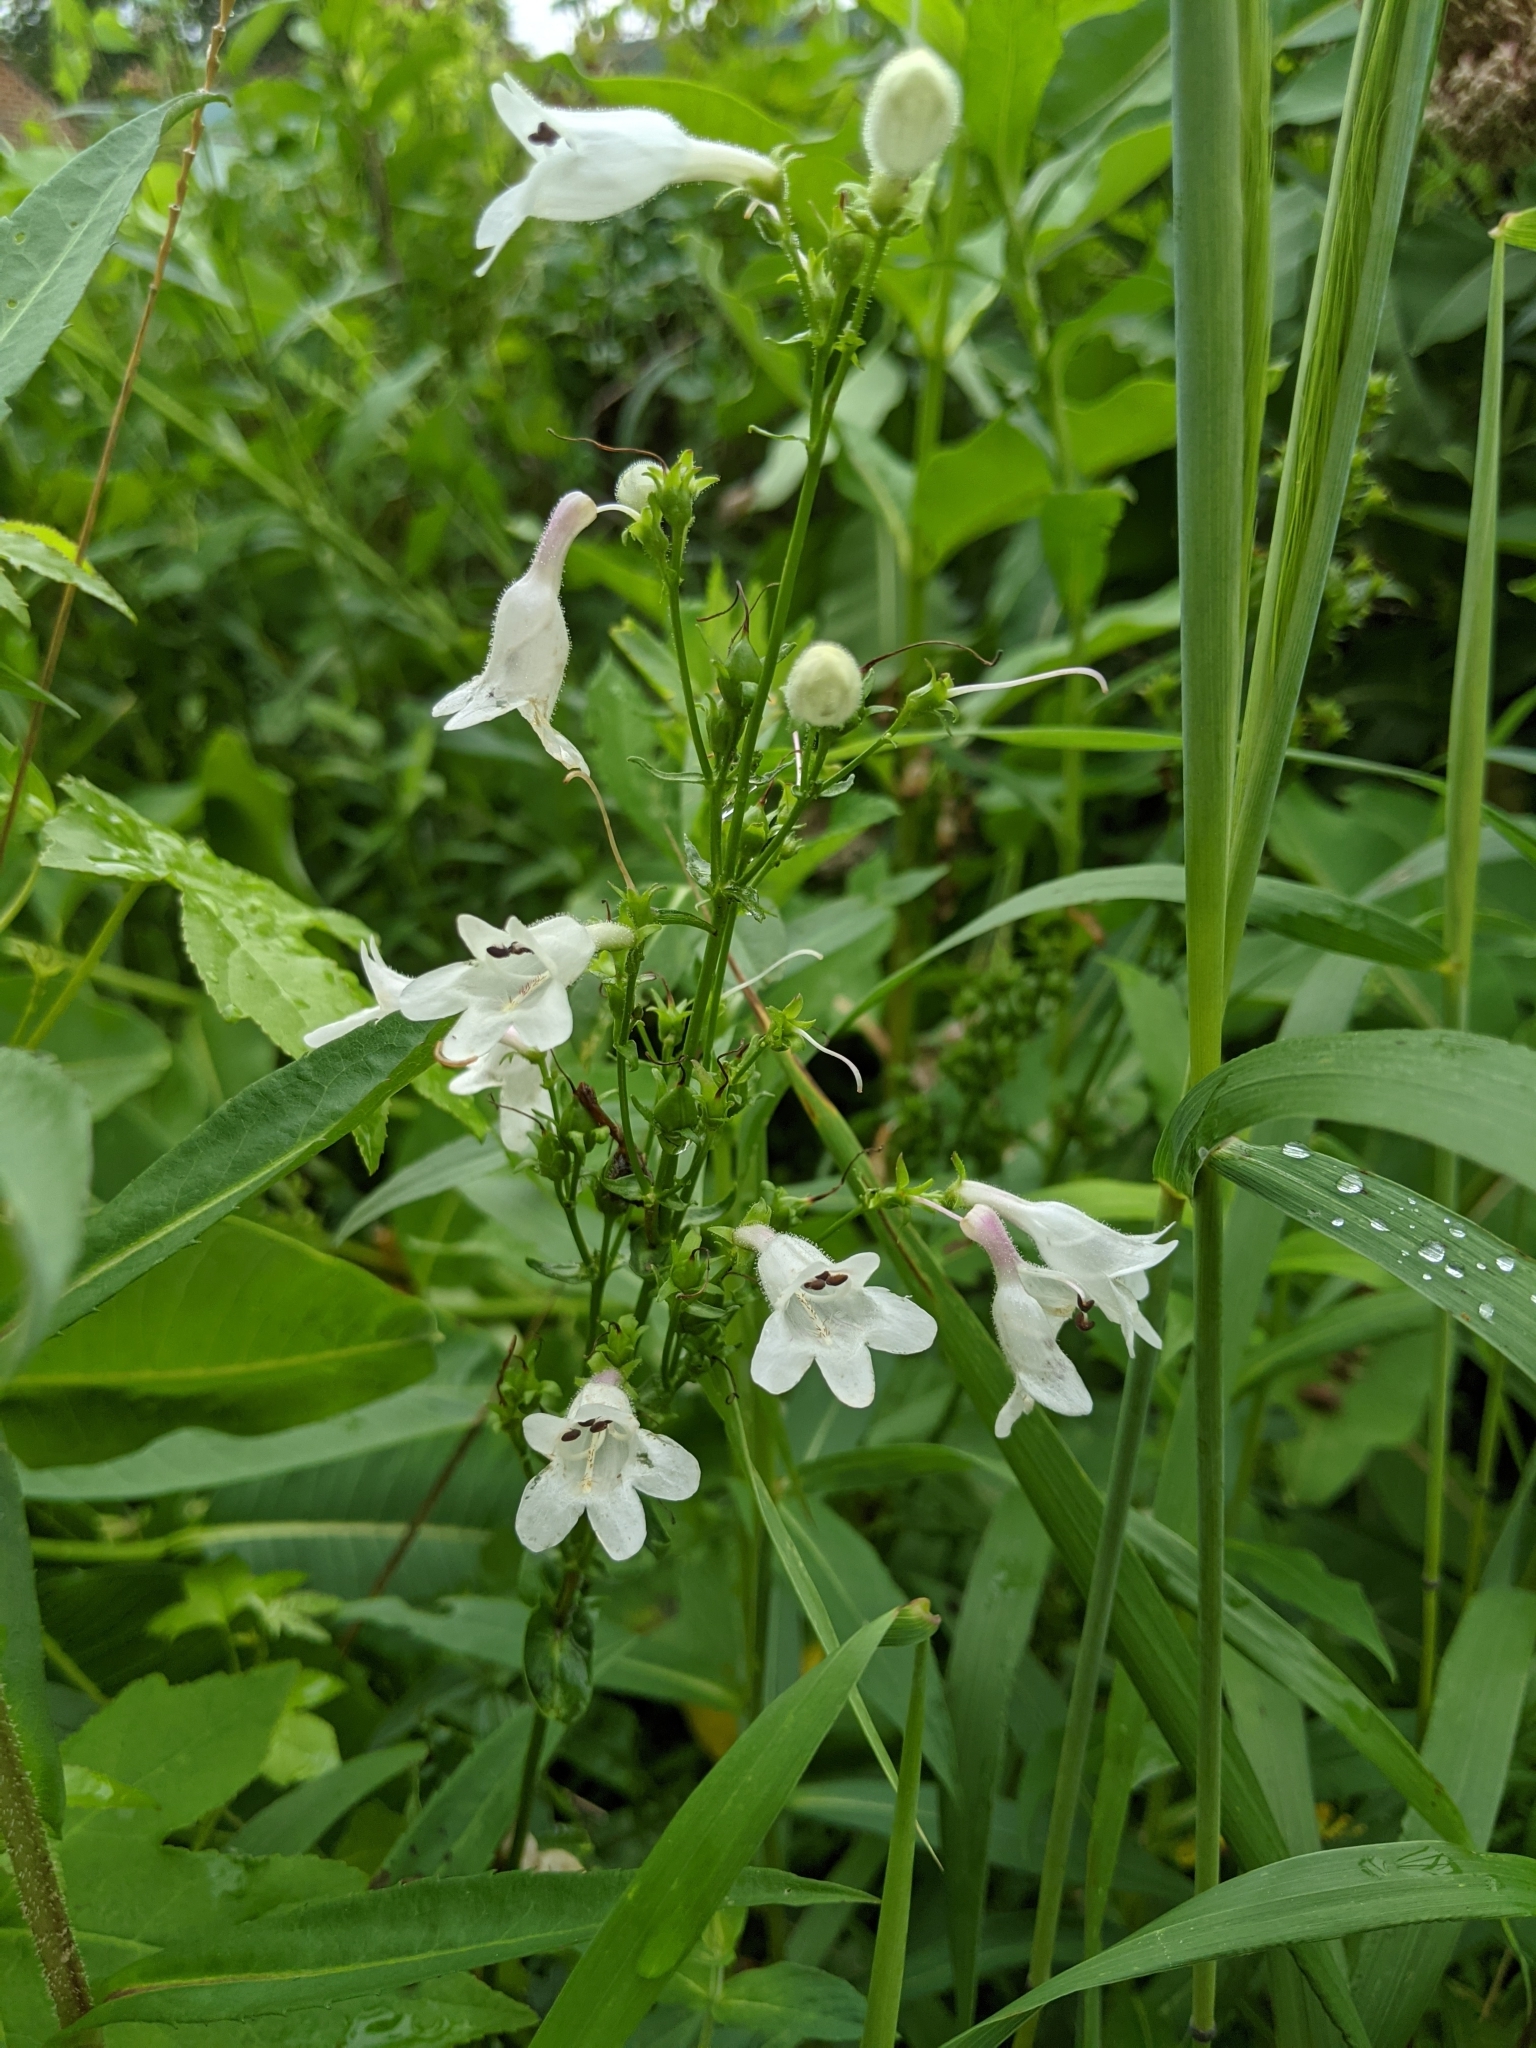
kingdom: Plantae
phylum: Tracheophyta
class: Magnoliopsida
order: Lamiales
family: Plantaginaceae
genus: Penstemon
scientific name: Penstemon digitalis
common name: Foxglove beardtongue
